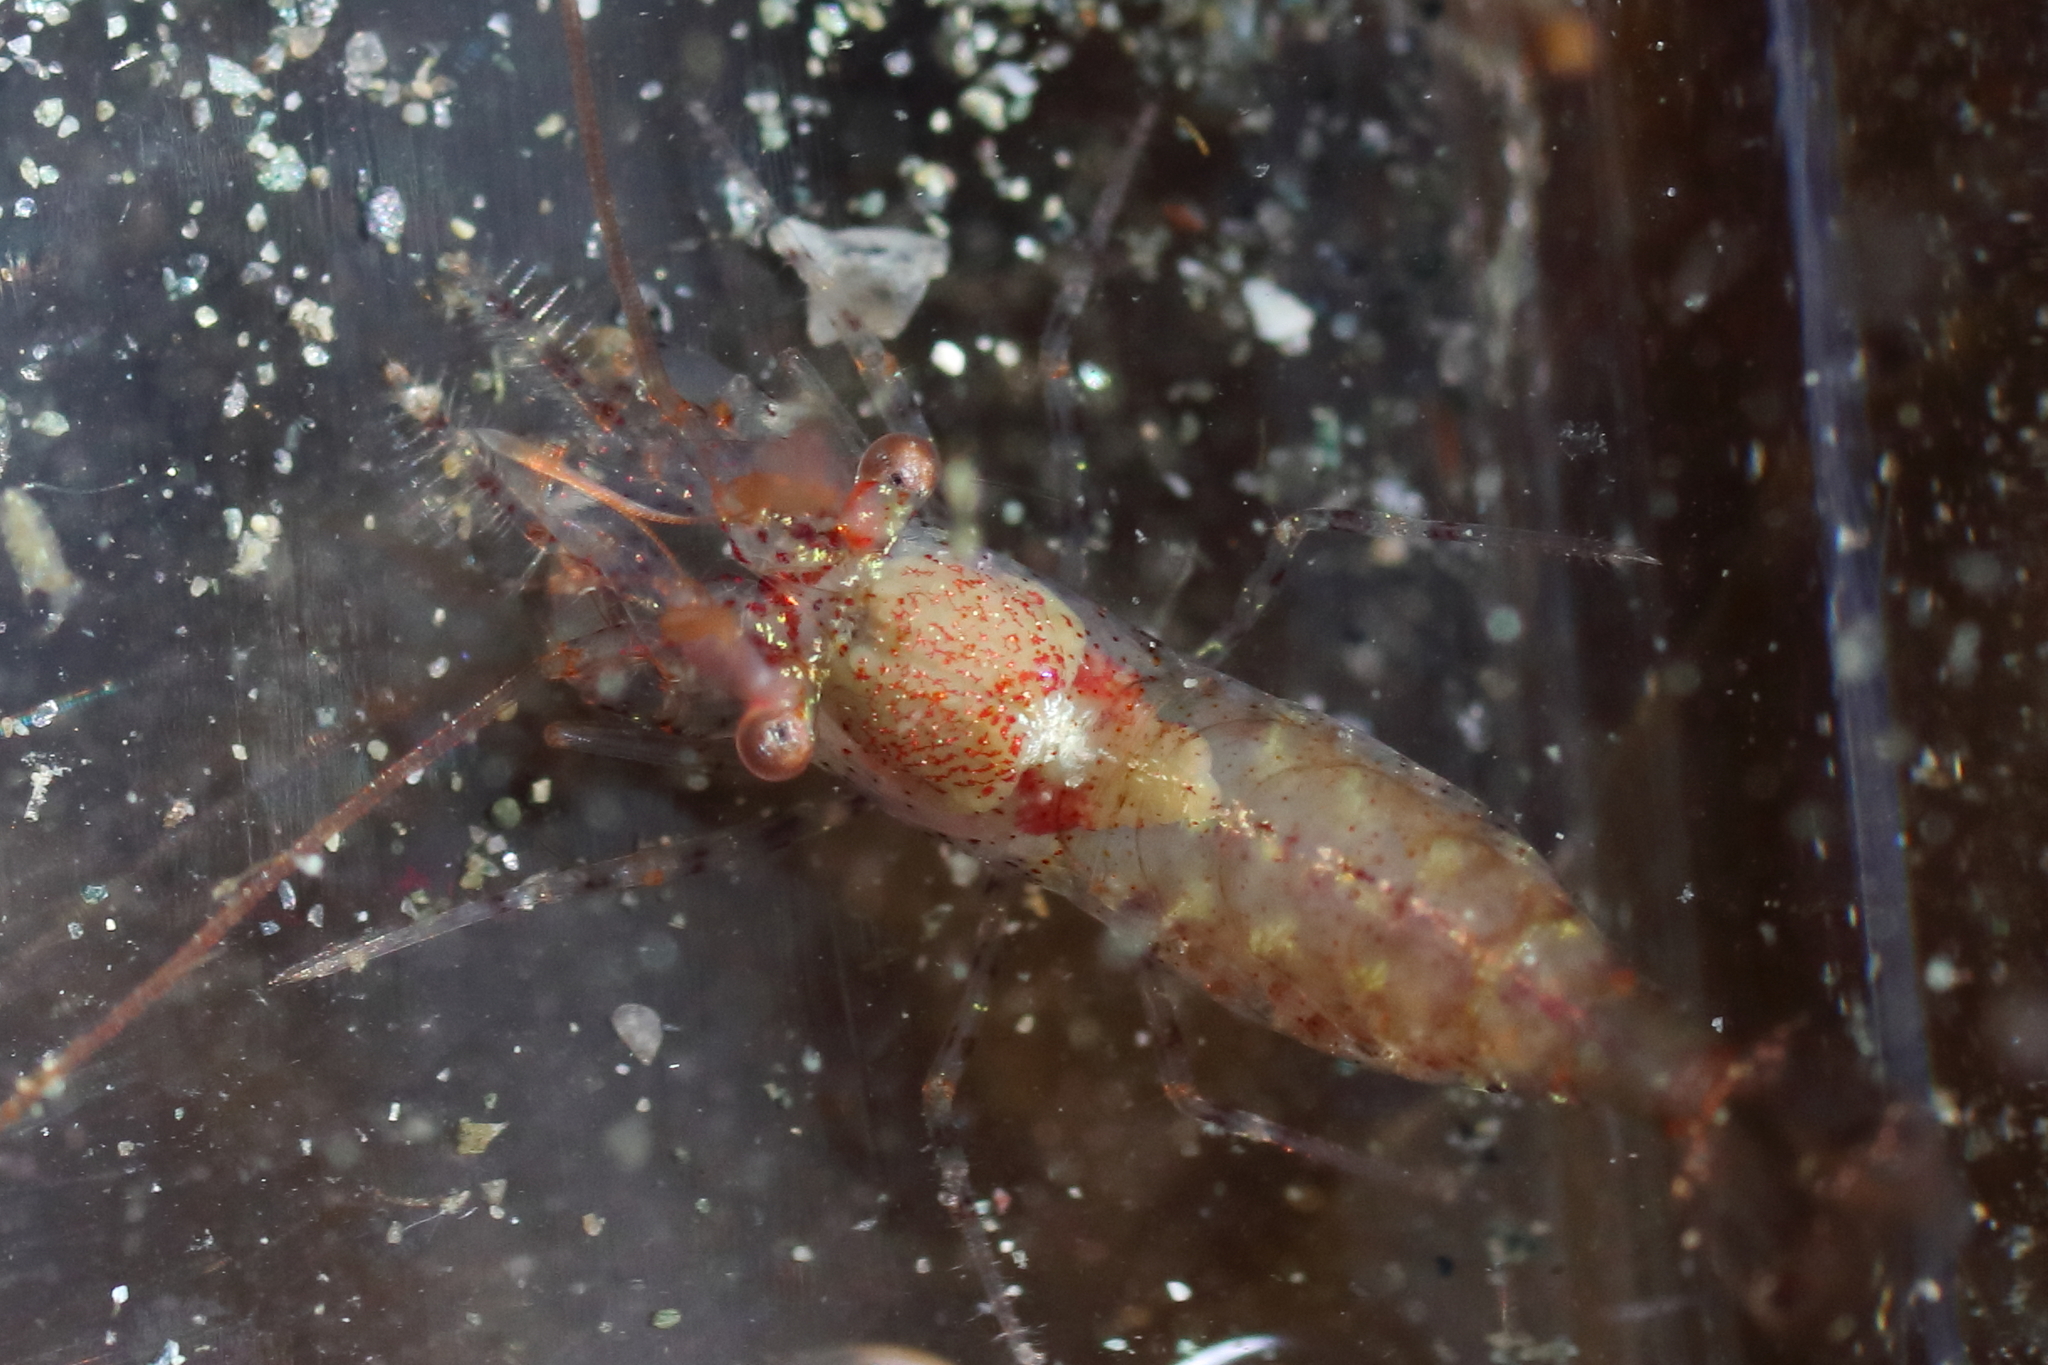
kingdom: Animalia
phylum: Arthropoda
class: Malacostraca
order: Decapoda
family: Thoridae
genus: Eualus
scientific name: Eualus subtilis
